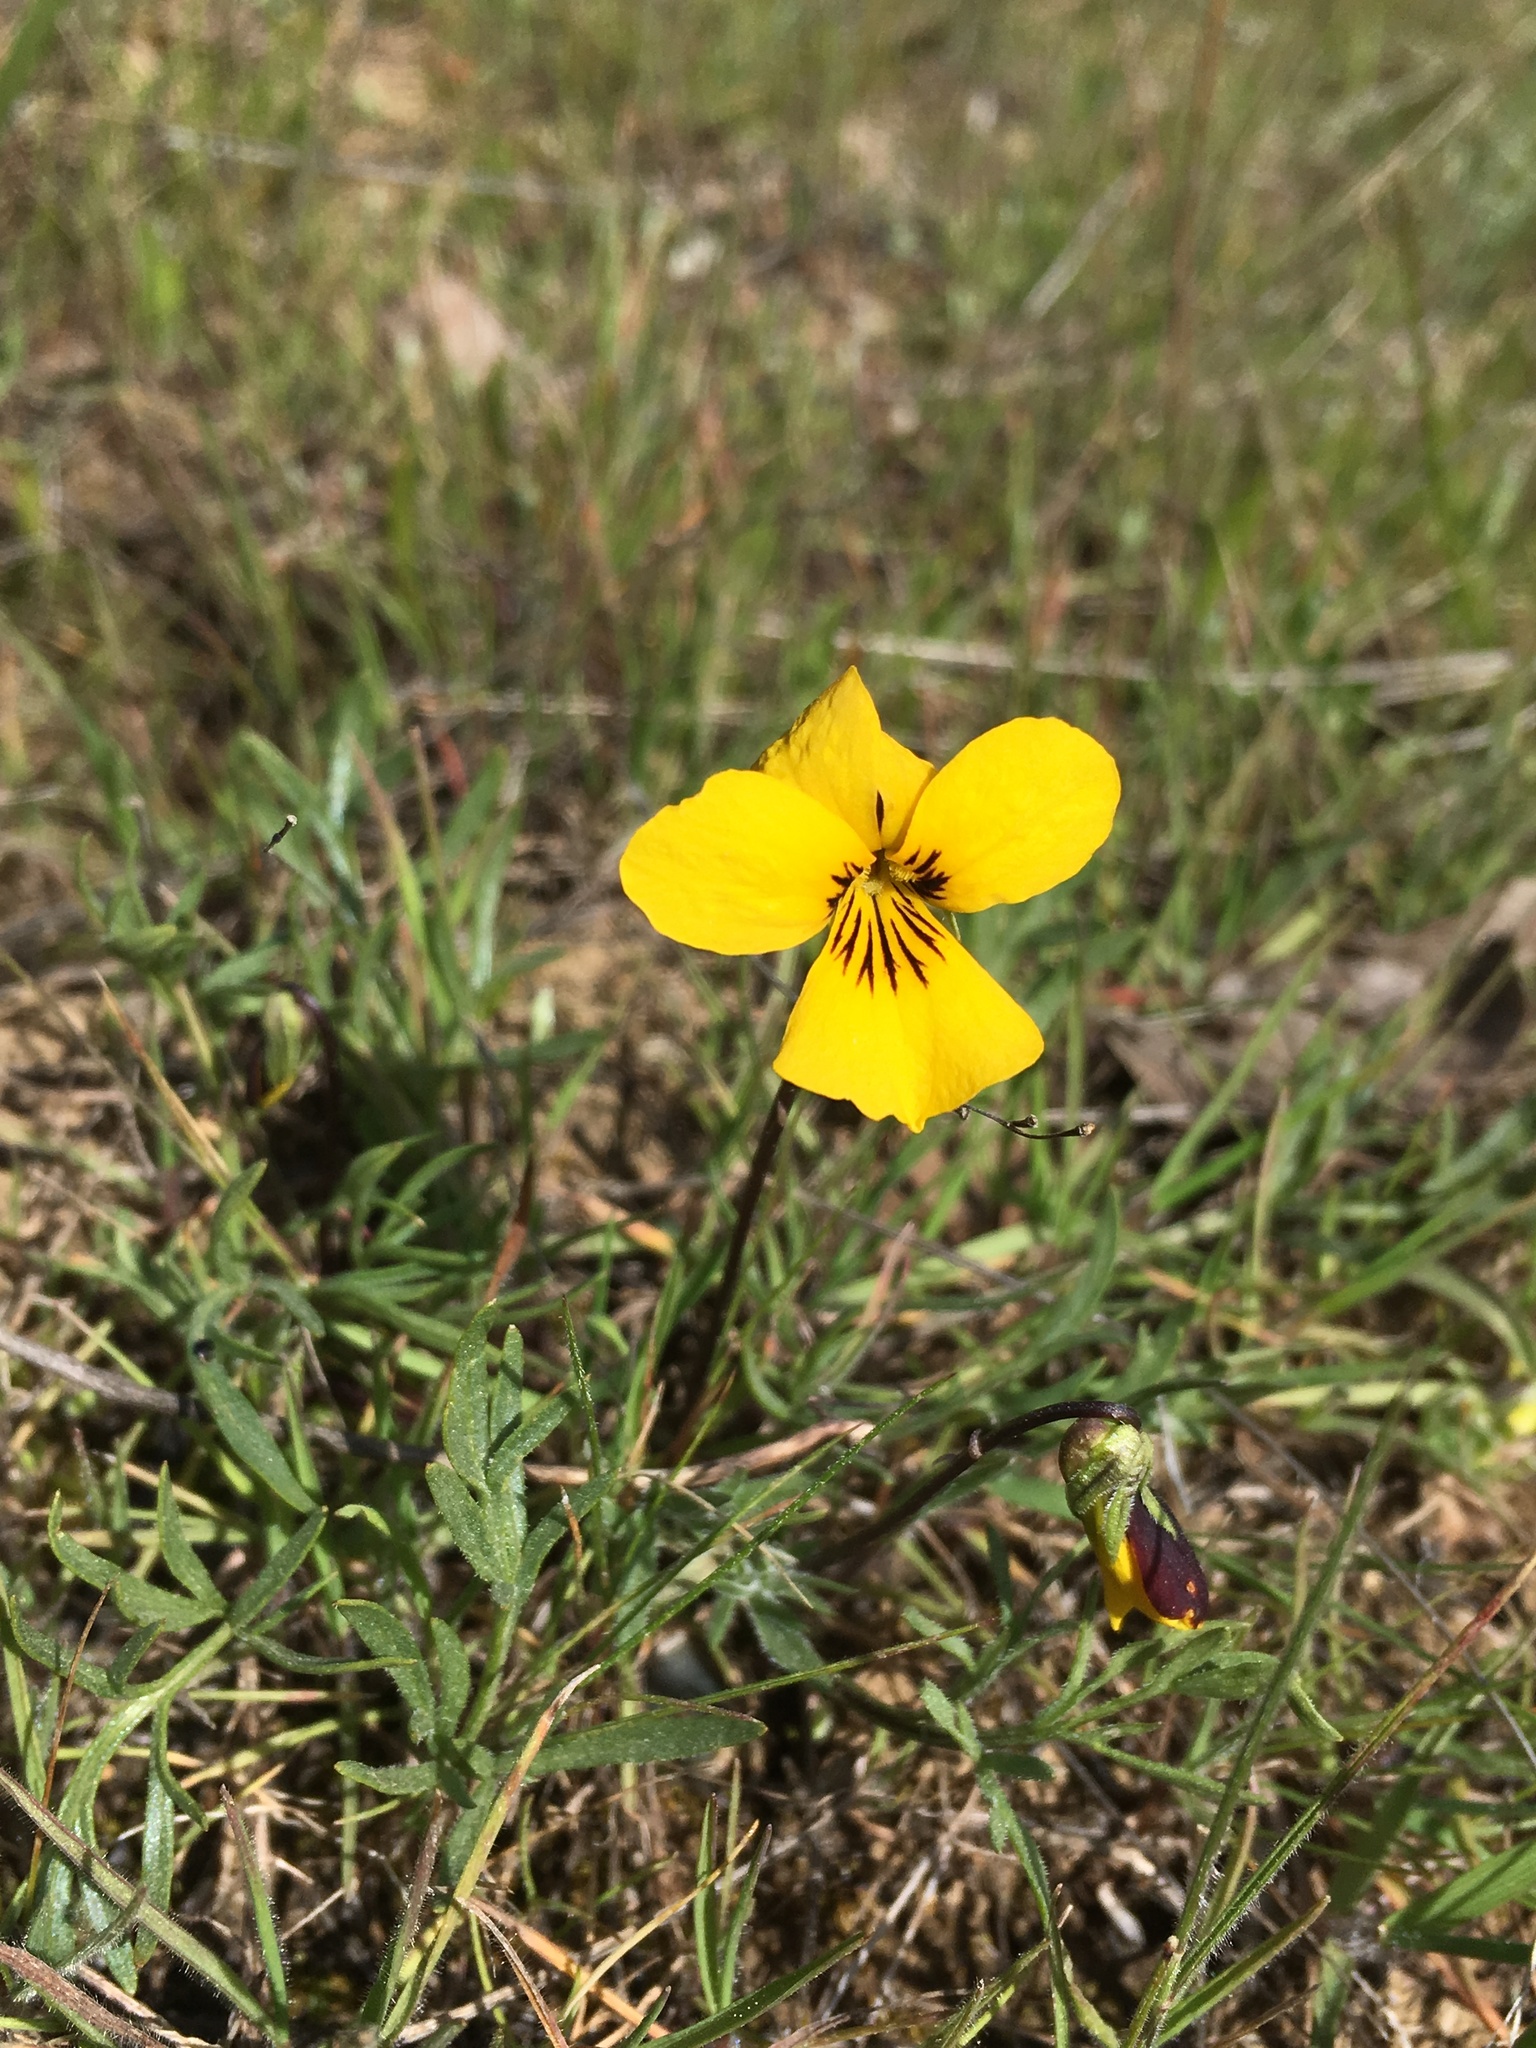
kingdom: Plantae
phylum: Tracheophyta
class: Magnoliopsida
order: Malpighiales
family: Violaceae
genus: Viola
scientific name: Viola douglasii
